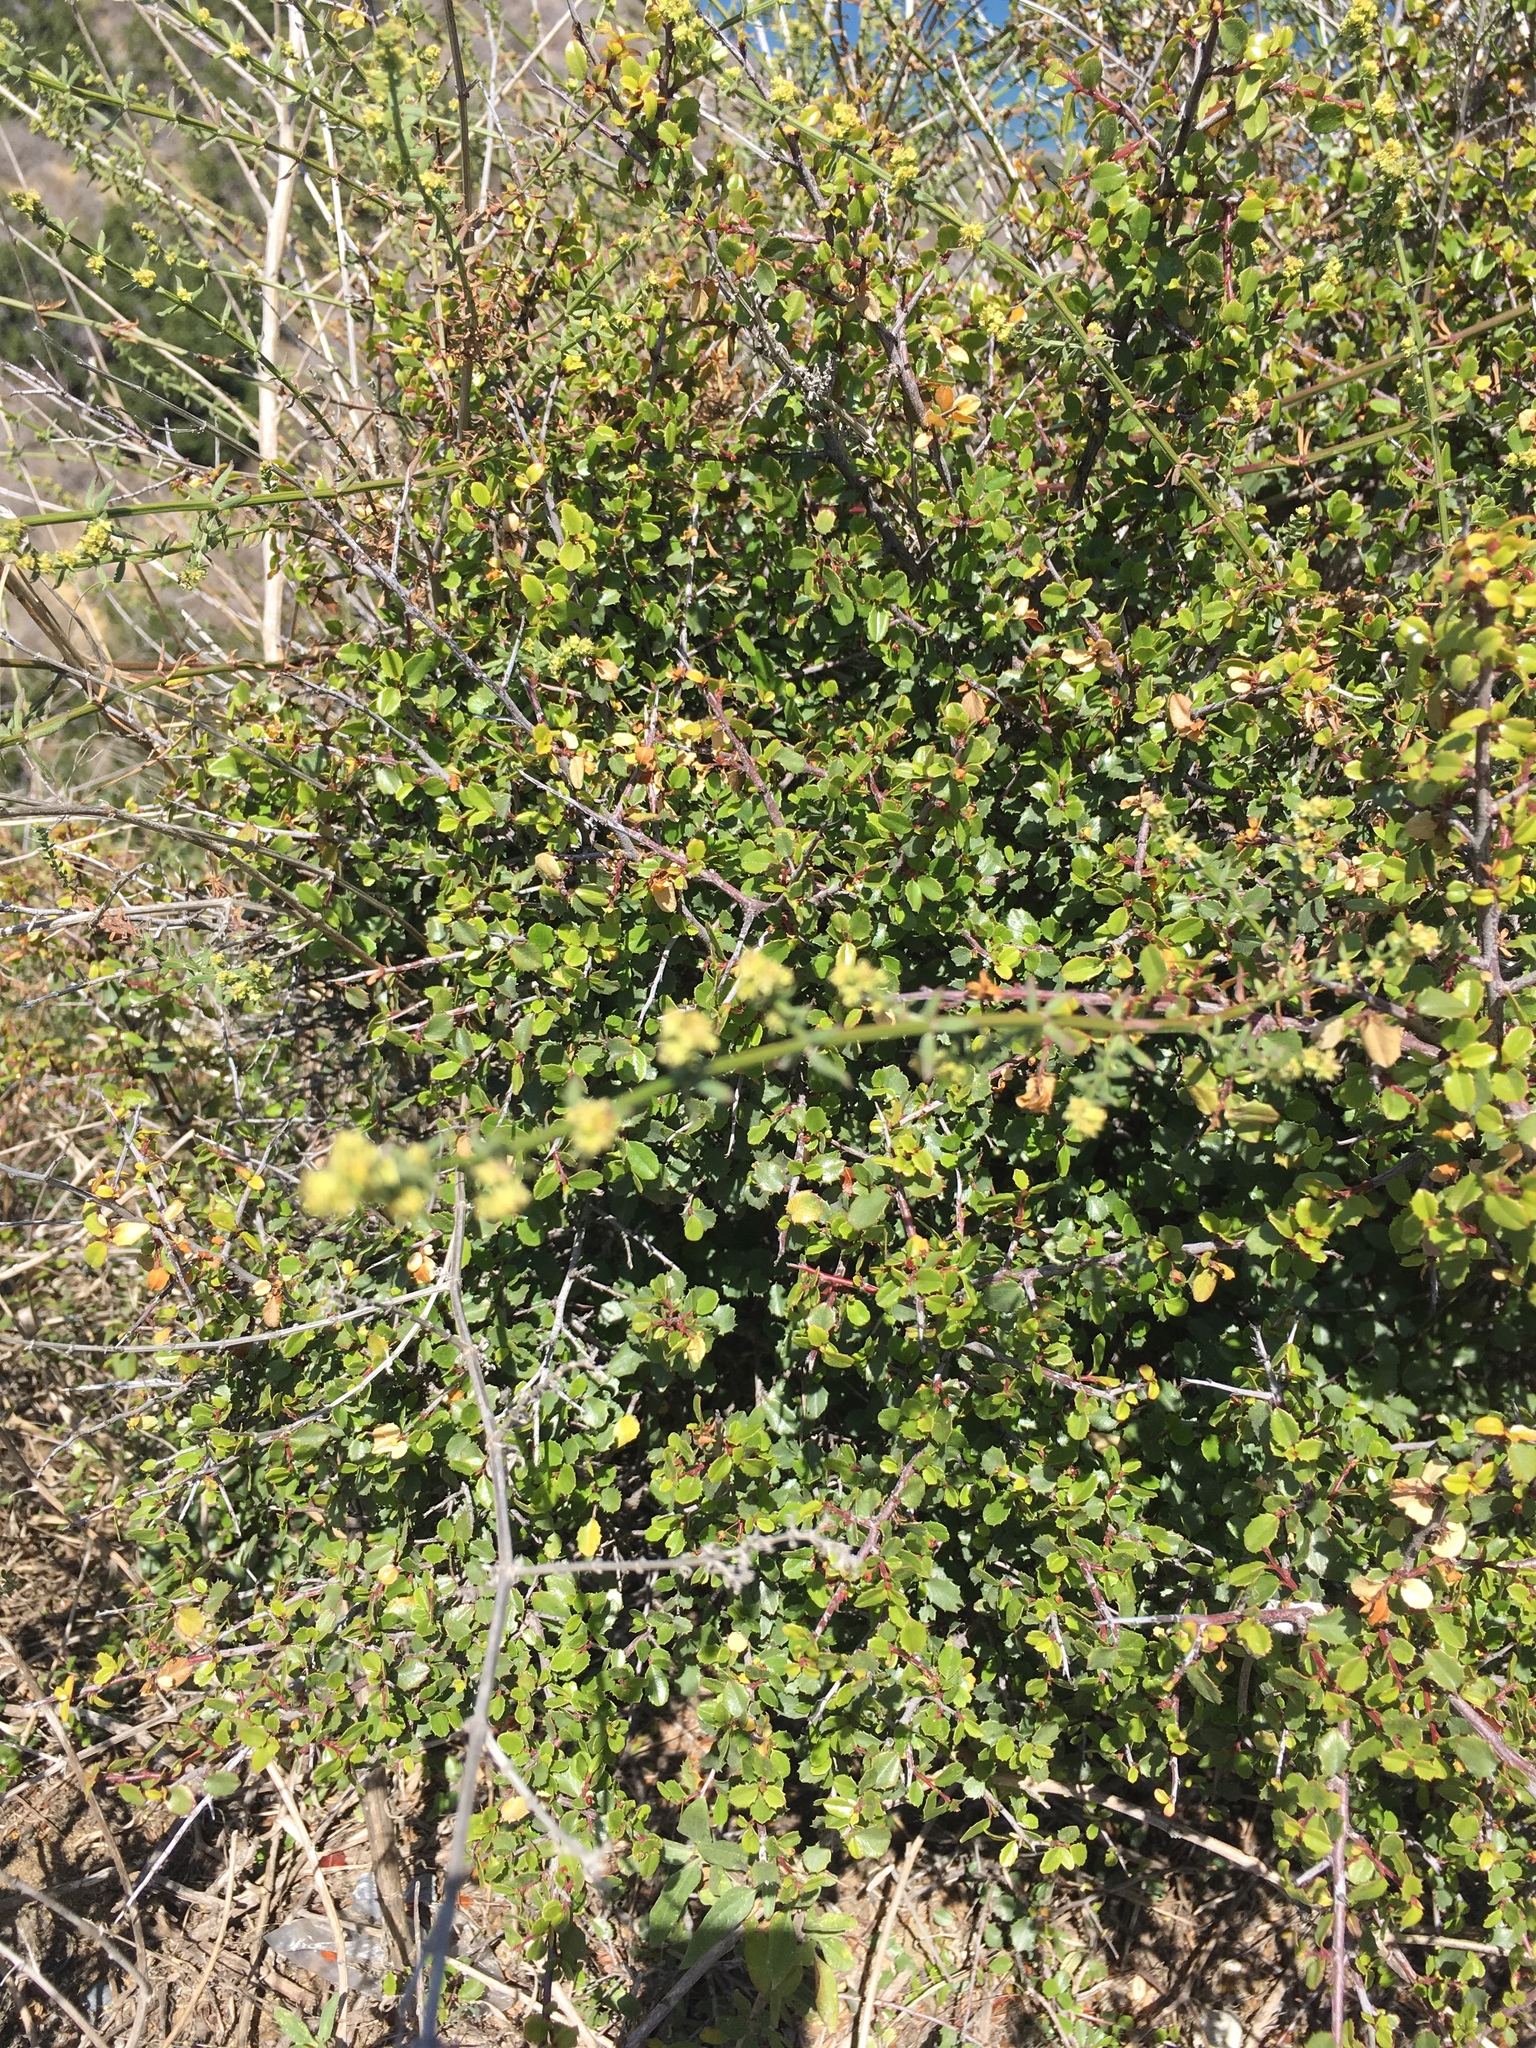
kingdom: Plantae
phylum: Tracheophyta
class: Magnoliopsida
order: Rosales
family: Rhamnaceae
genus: Endotropis
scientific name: Endotropis crocea
